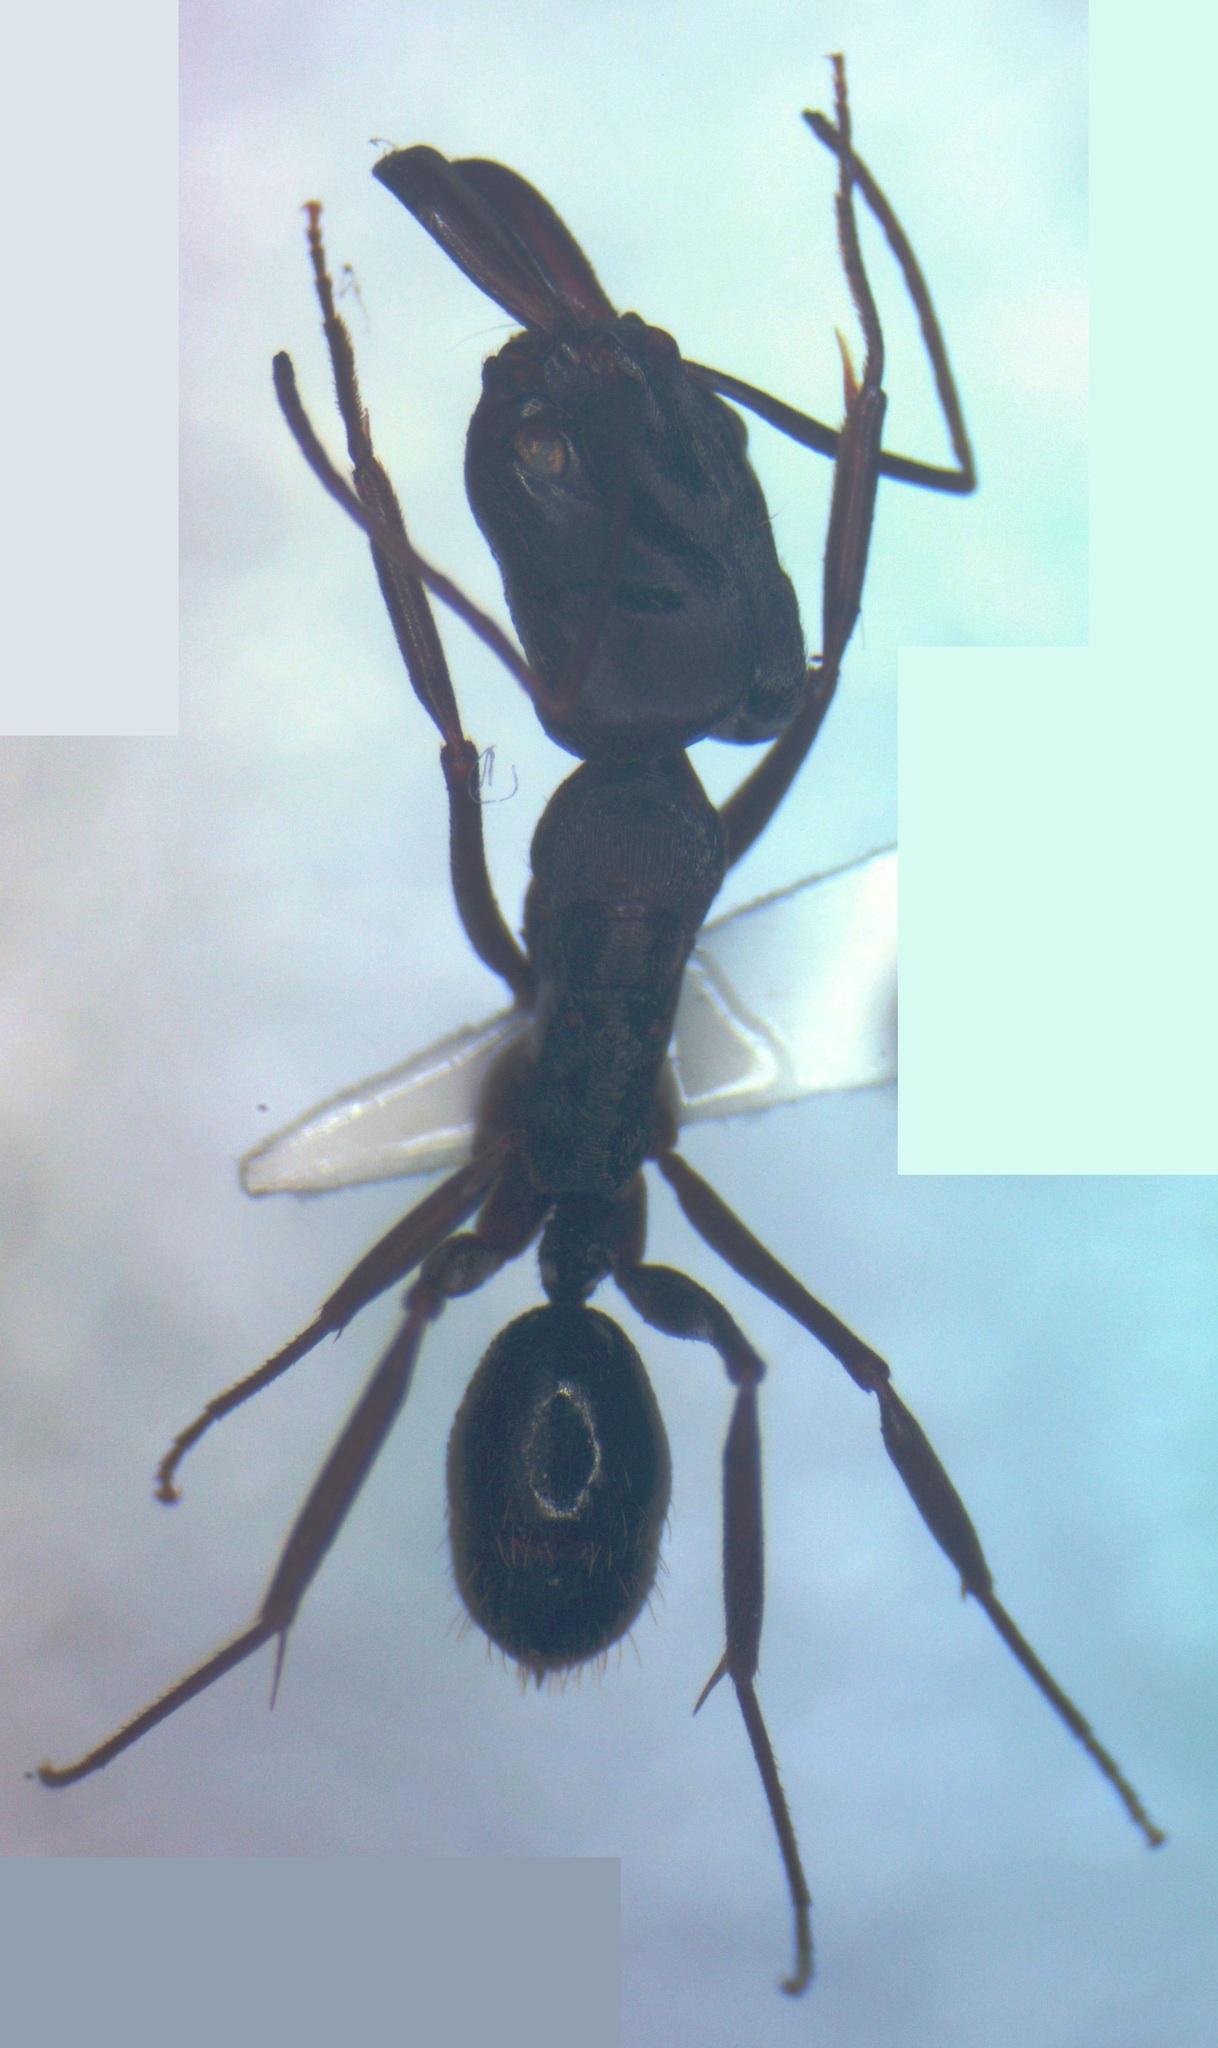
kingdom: Animalia
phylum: Arthropoda
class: Insecta
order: Hymenoptera
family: Formicidae
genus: Odontomachus
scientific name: Odontomachus laticeps
